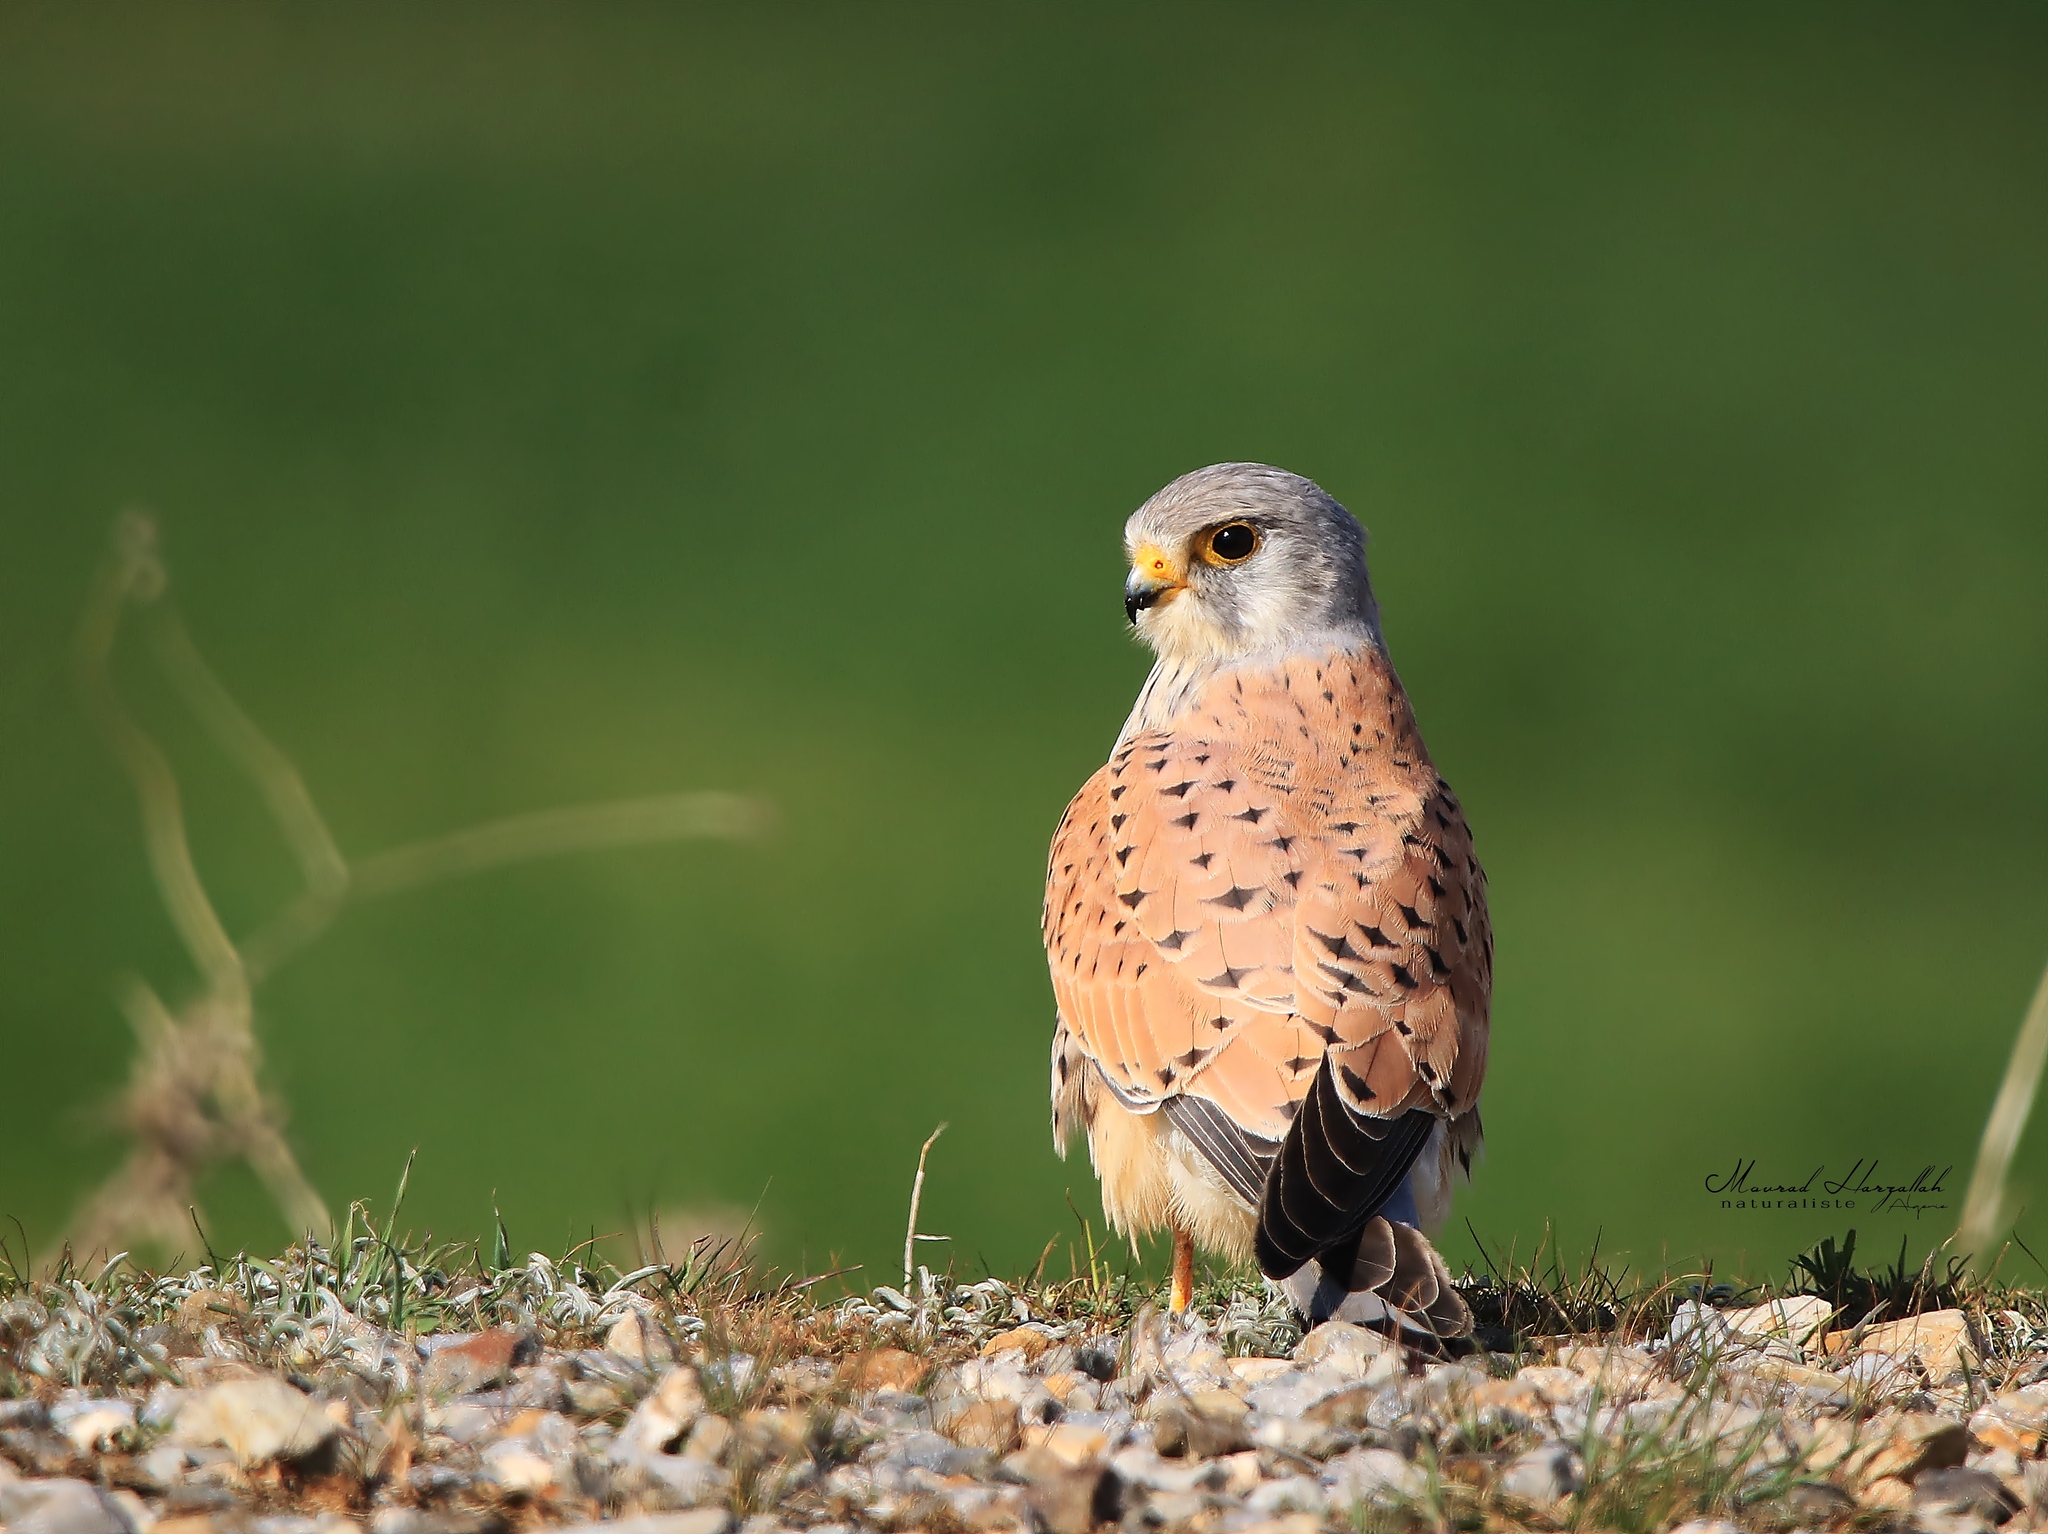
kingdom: Animalia
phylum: Chordata
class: Aves
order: Falconiformes
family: Falconidae
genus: Falco
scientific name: Falco tinnunculus
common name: Common kestrel
